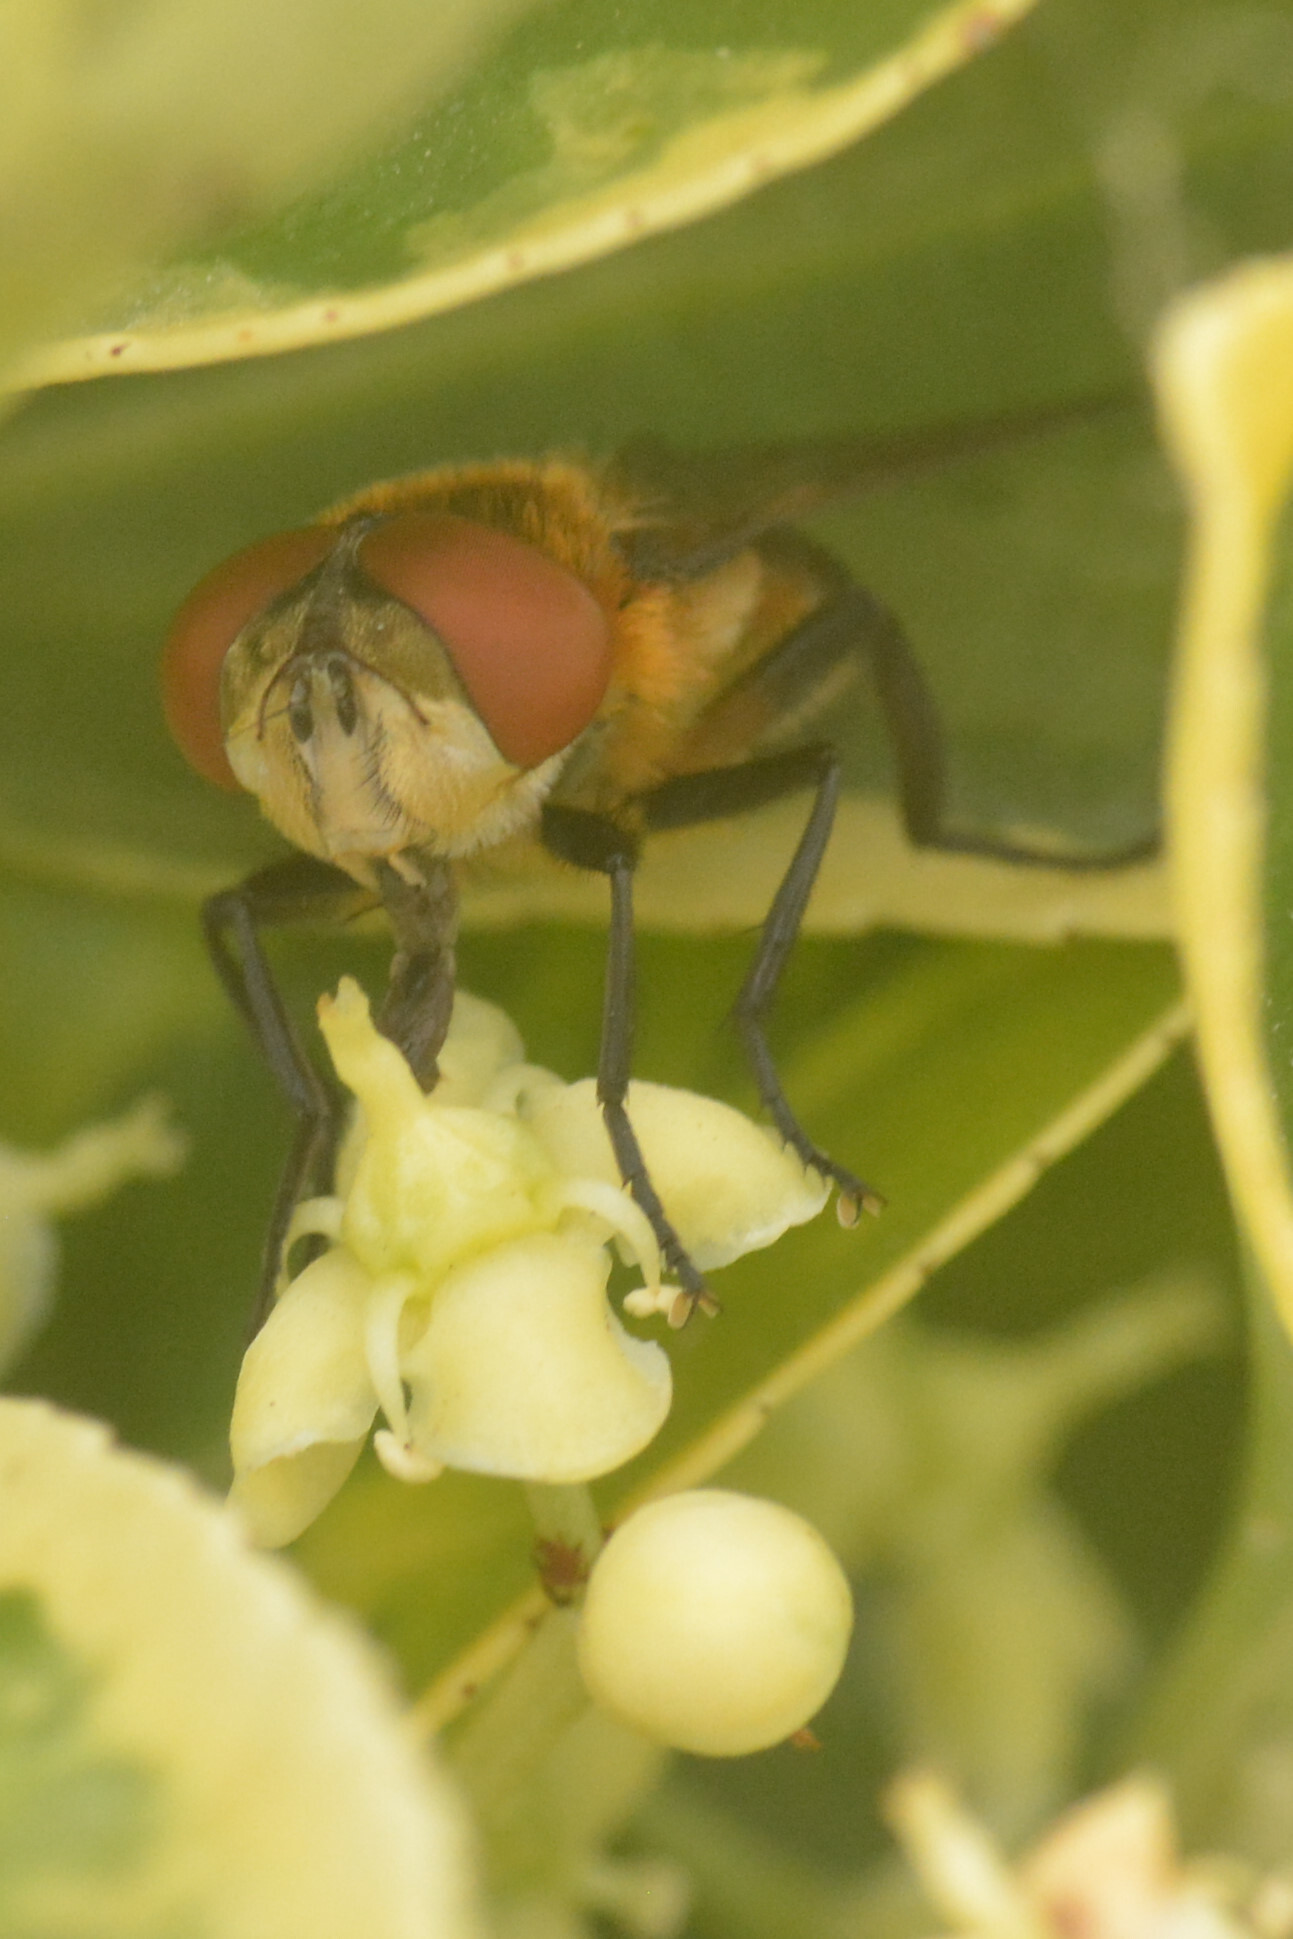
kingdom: Animalia
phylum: Arthropoda
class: Insecta
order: Diptera
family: Tachinidae
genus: Phasia
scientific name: Phasia hemiptera
